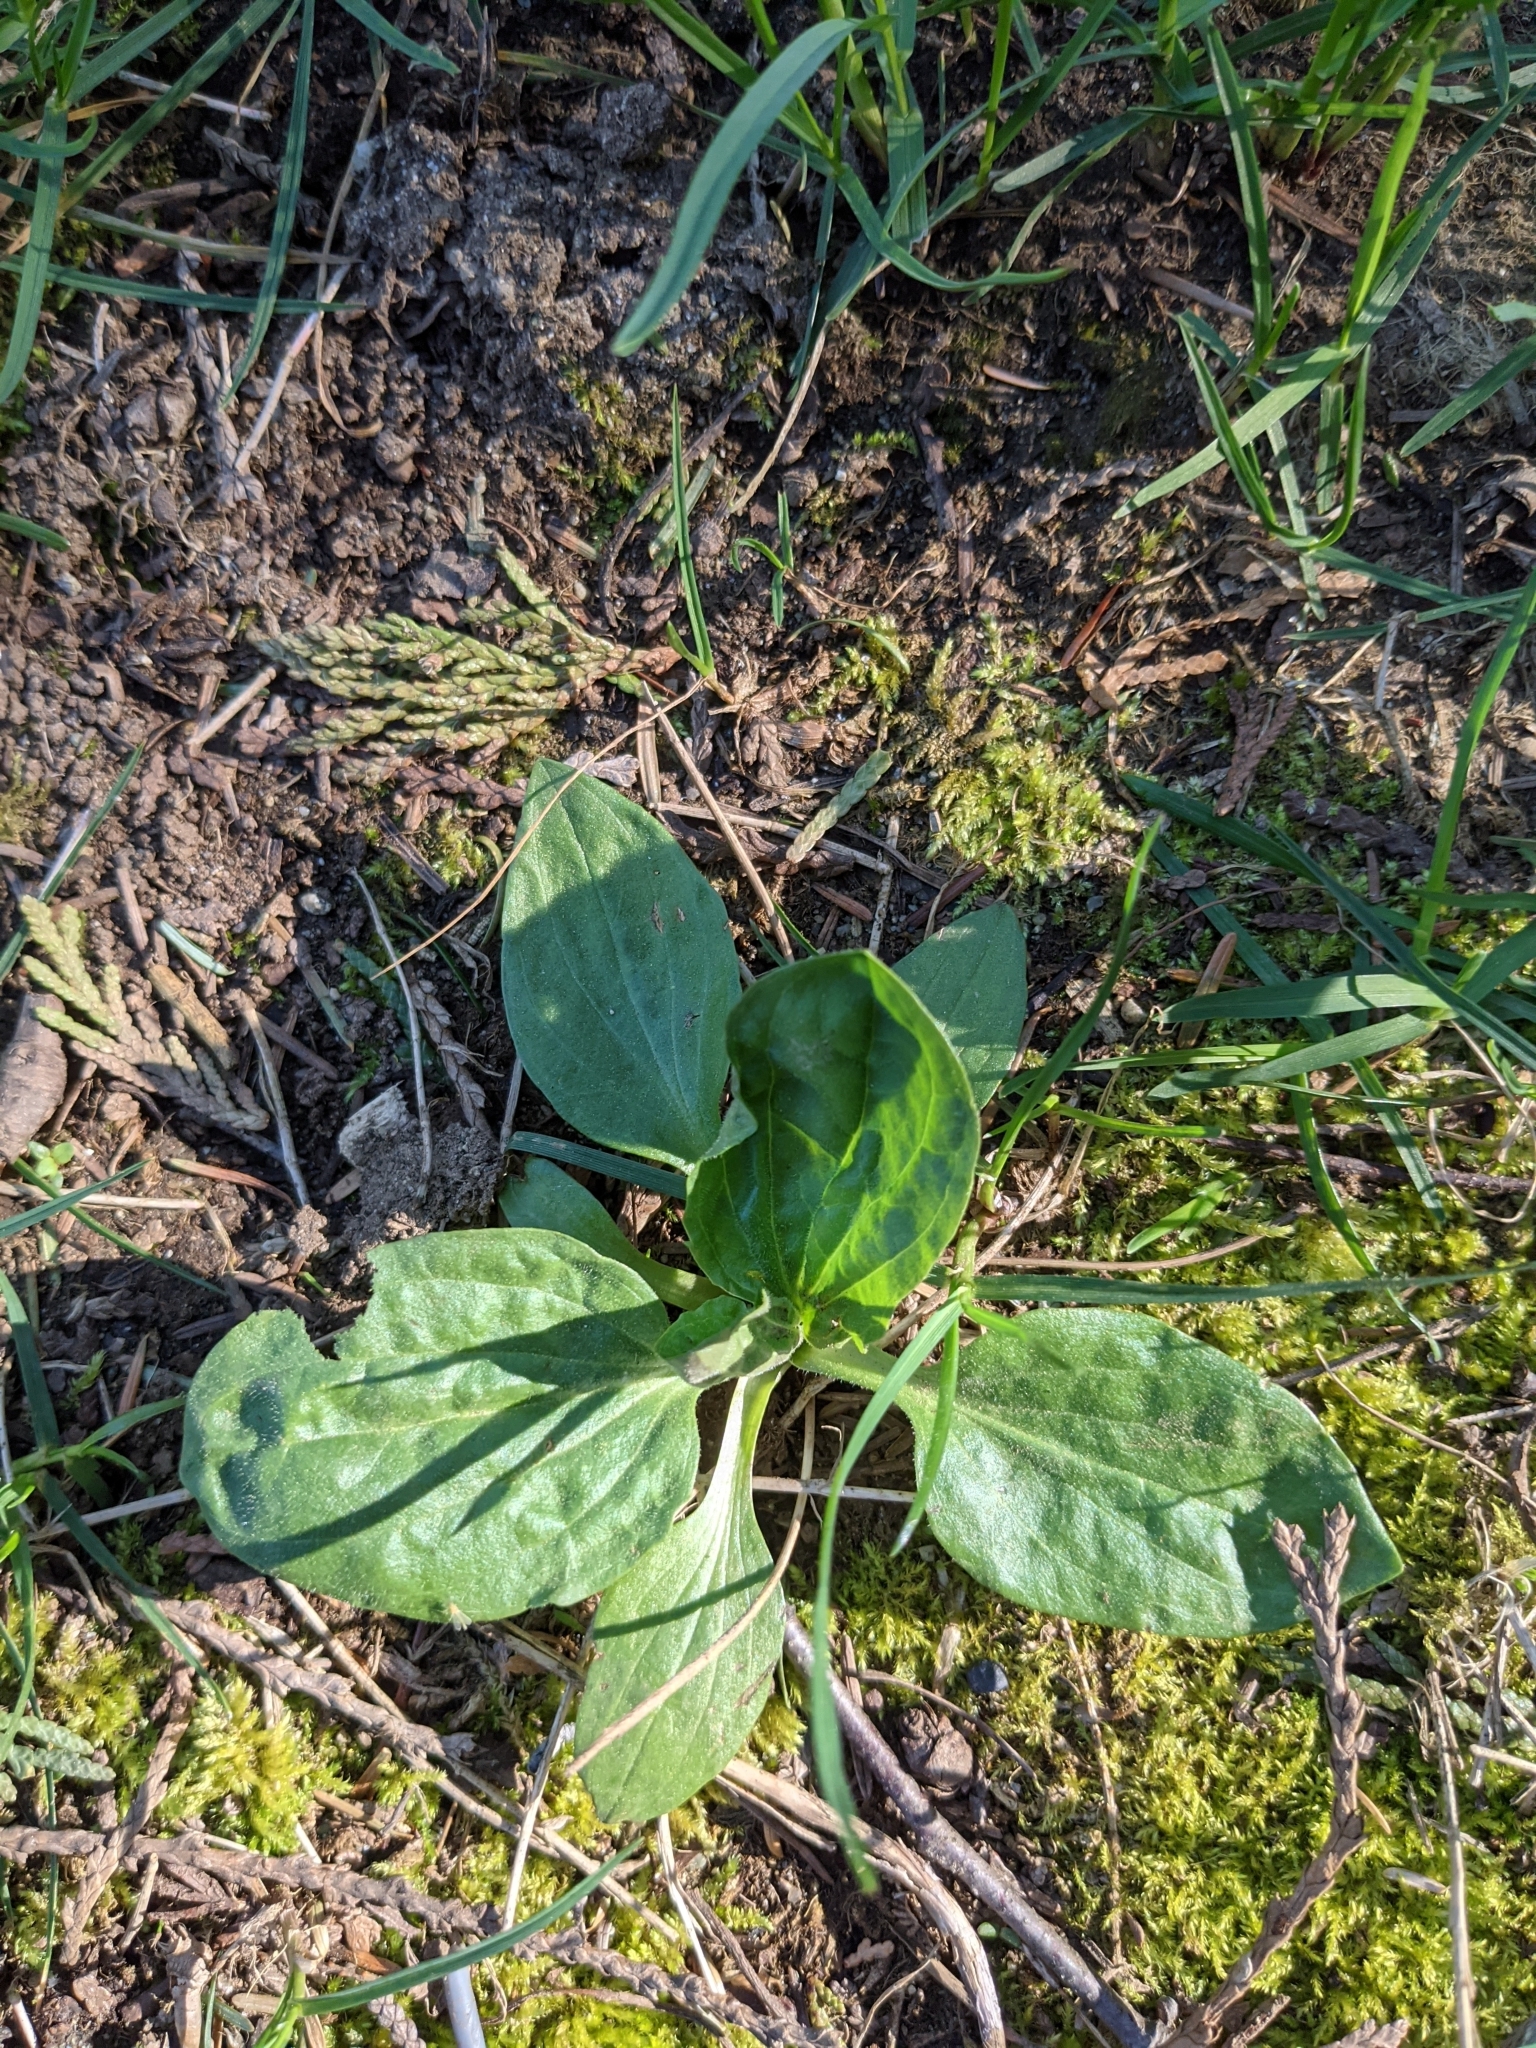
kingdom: Plantae
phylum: Tracheophyta
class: Magnoliopsida
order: Lamiales
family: Plantaginaceae
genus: Plantago
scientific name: Plantago major
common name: Common plantain
